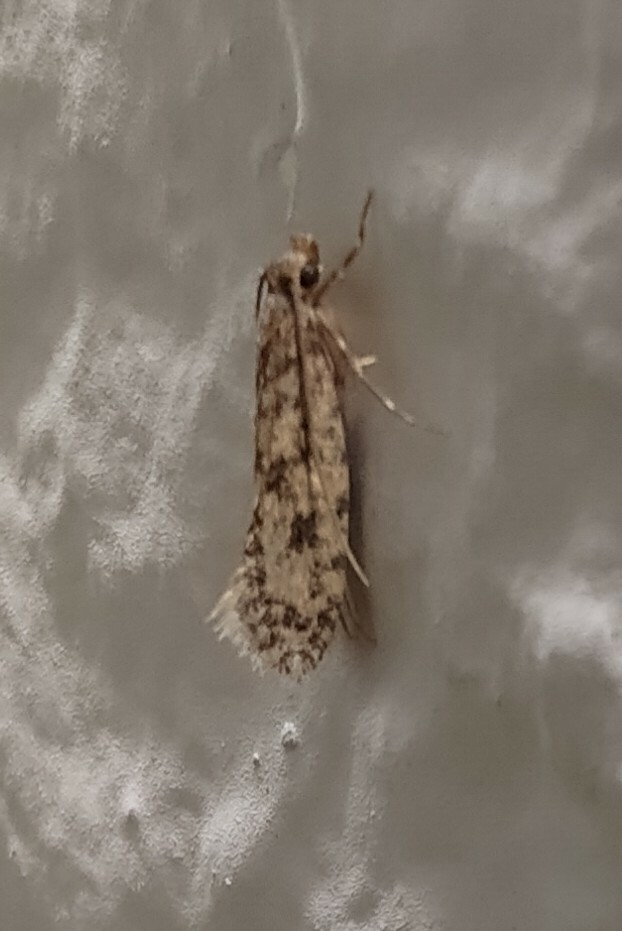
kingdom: Animalia
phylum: Arthropoda
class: Insecta
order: Lepidoptera
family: Tineidae
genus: Lindera
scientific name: Lindera tessellatella
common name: Moth
